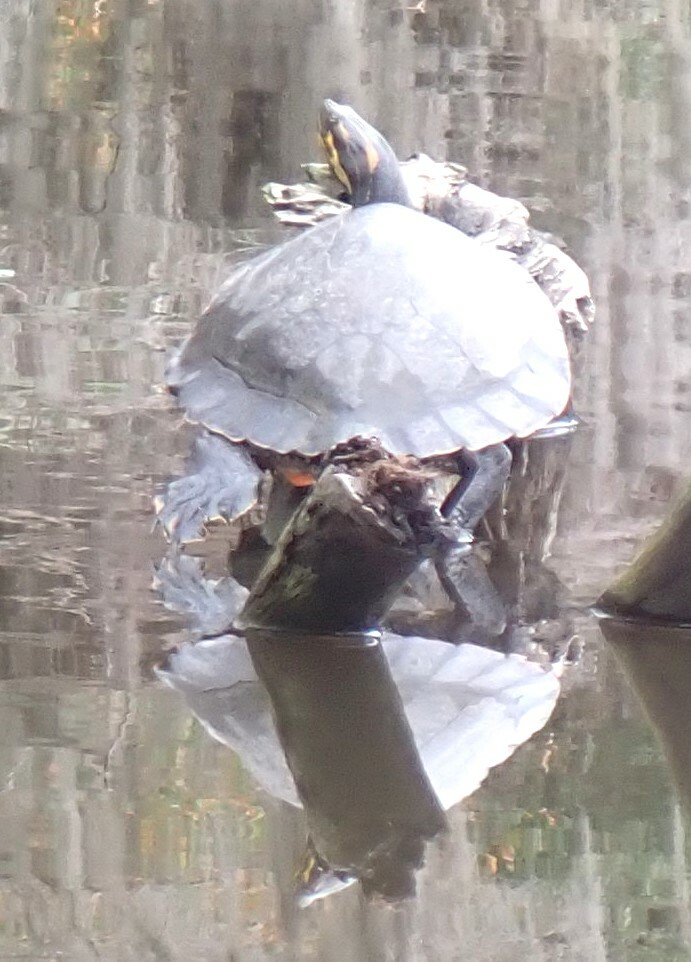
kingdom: Animalia
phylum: Chordata
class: Testudines
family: Emydidae
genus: Pseudemys
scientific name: Pseudemys concinna
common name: Eastern river cooter
